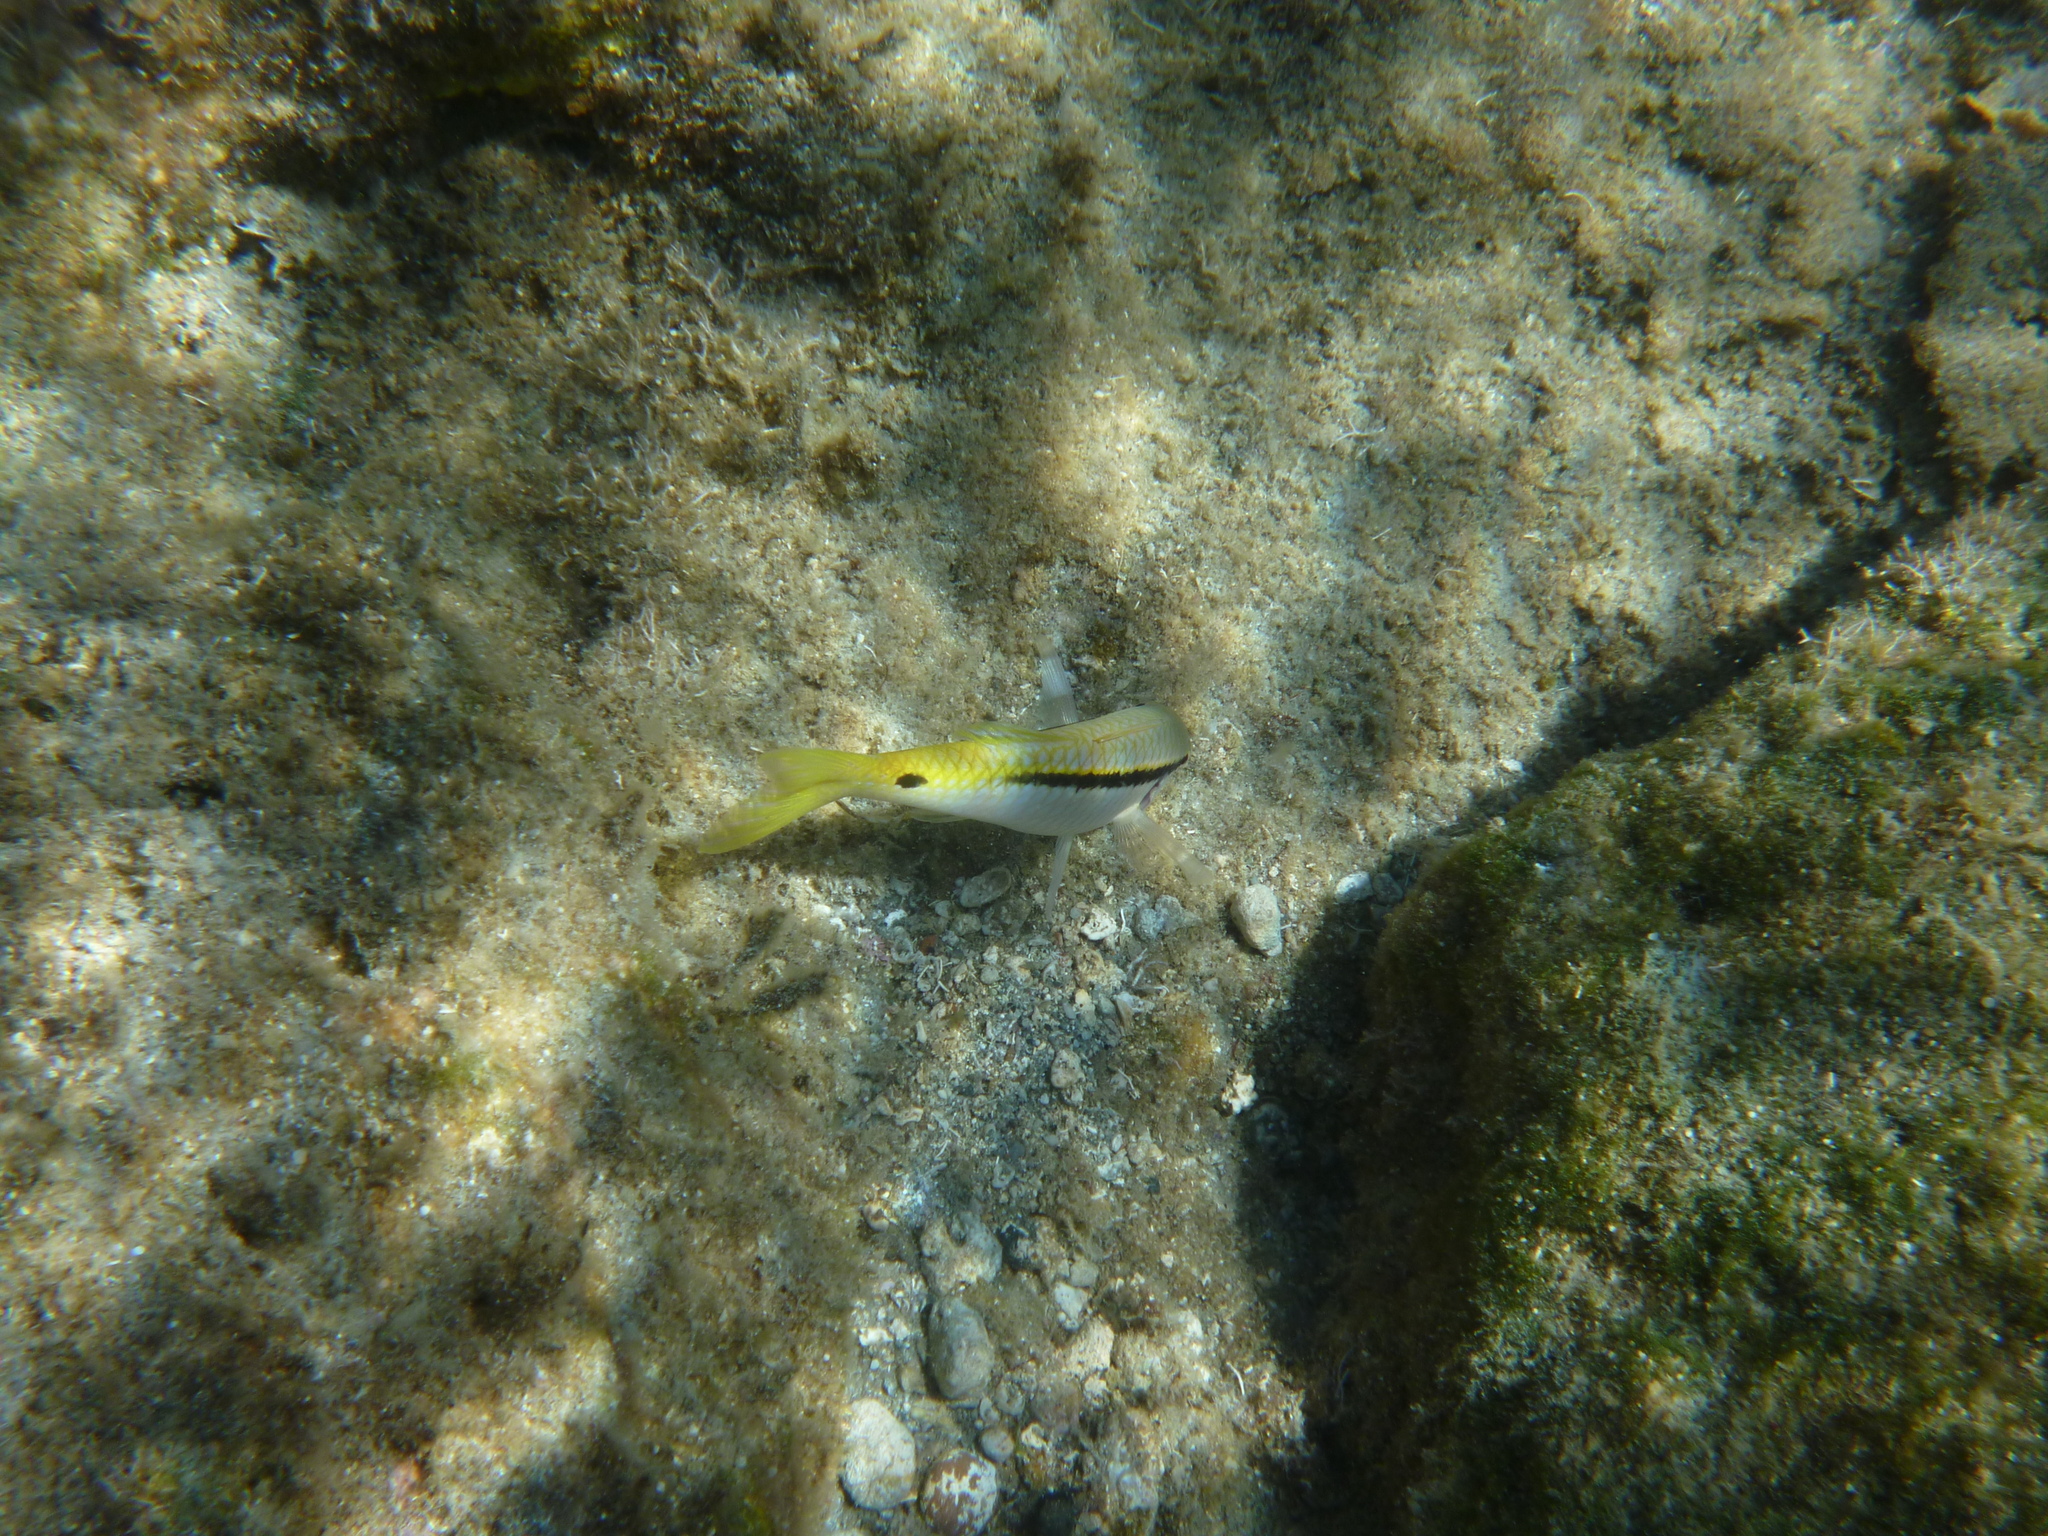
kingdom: Animalia
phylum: Chordata
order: Perciformes
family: Mullidae
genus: Parupeneus
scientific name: Parupeneus forsskali
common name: Red sea goatfish
